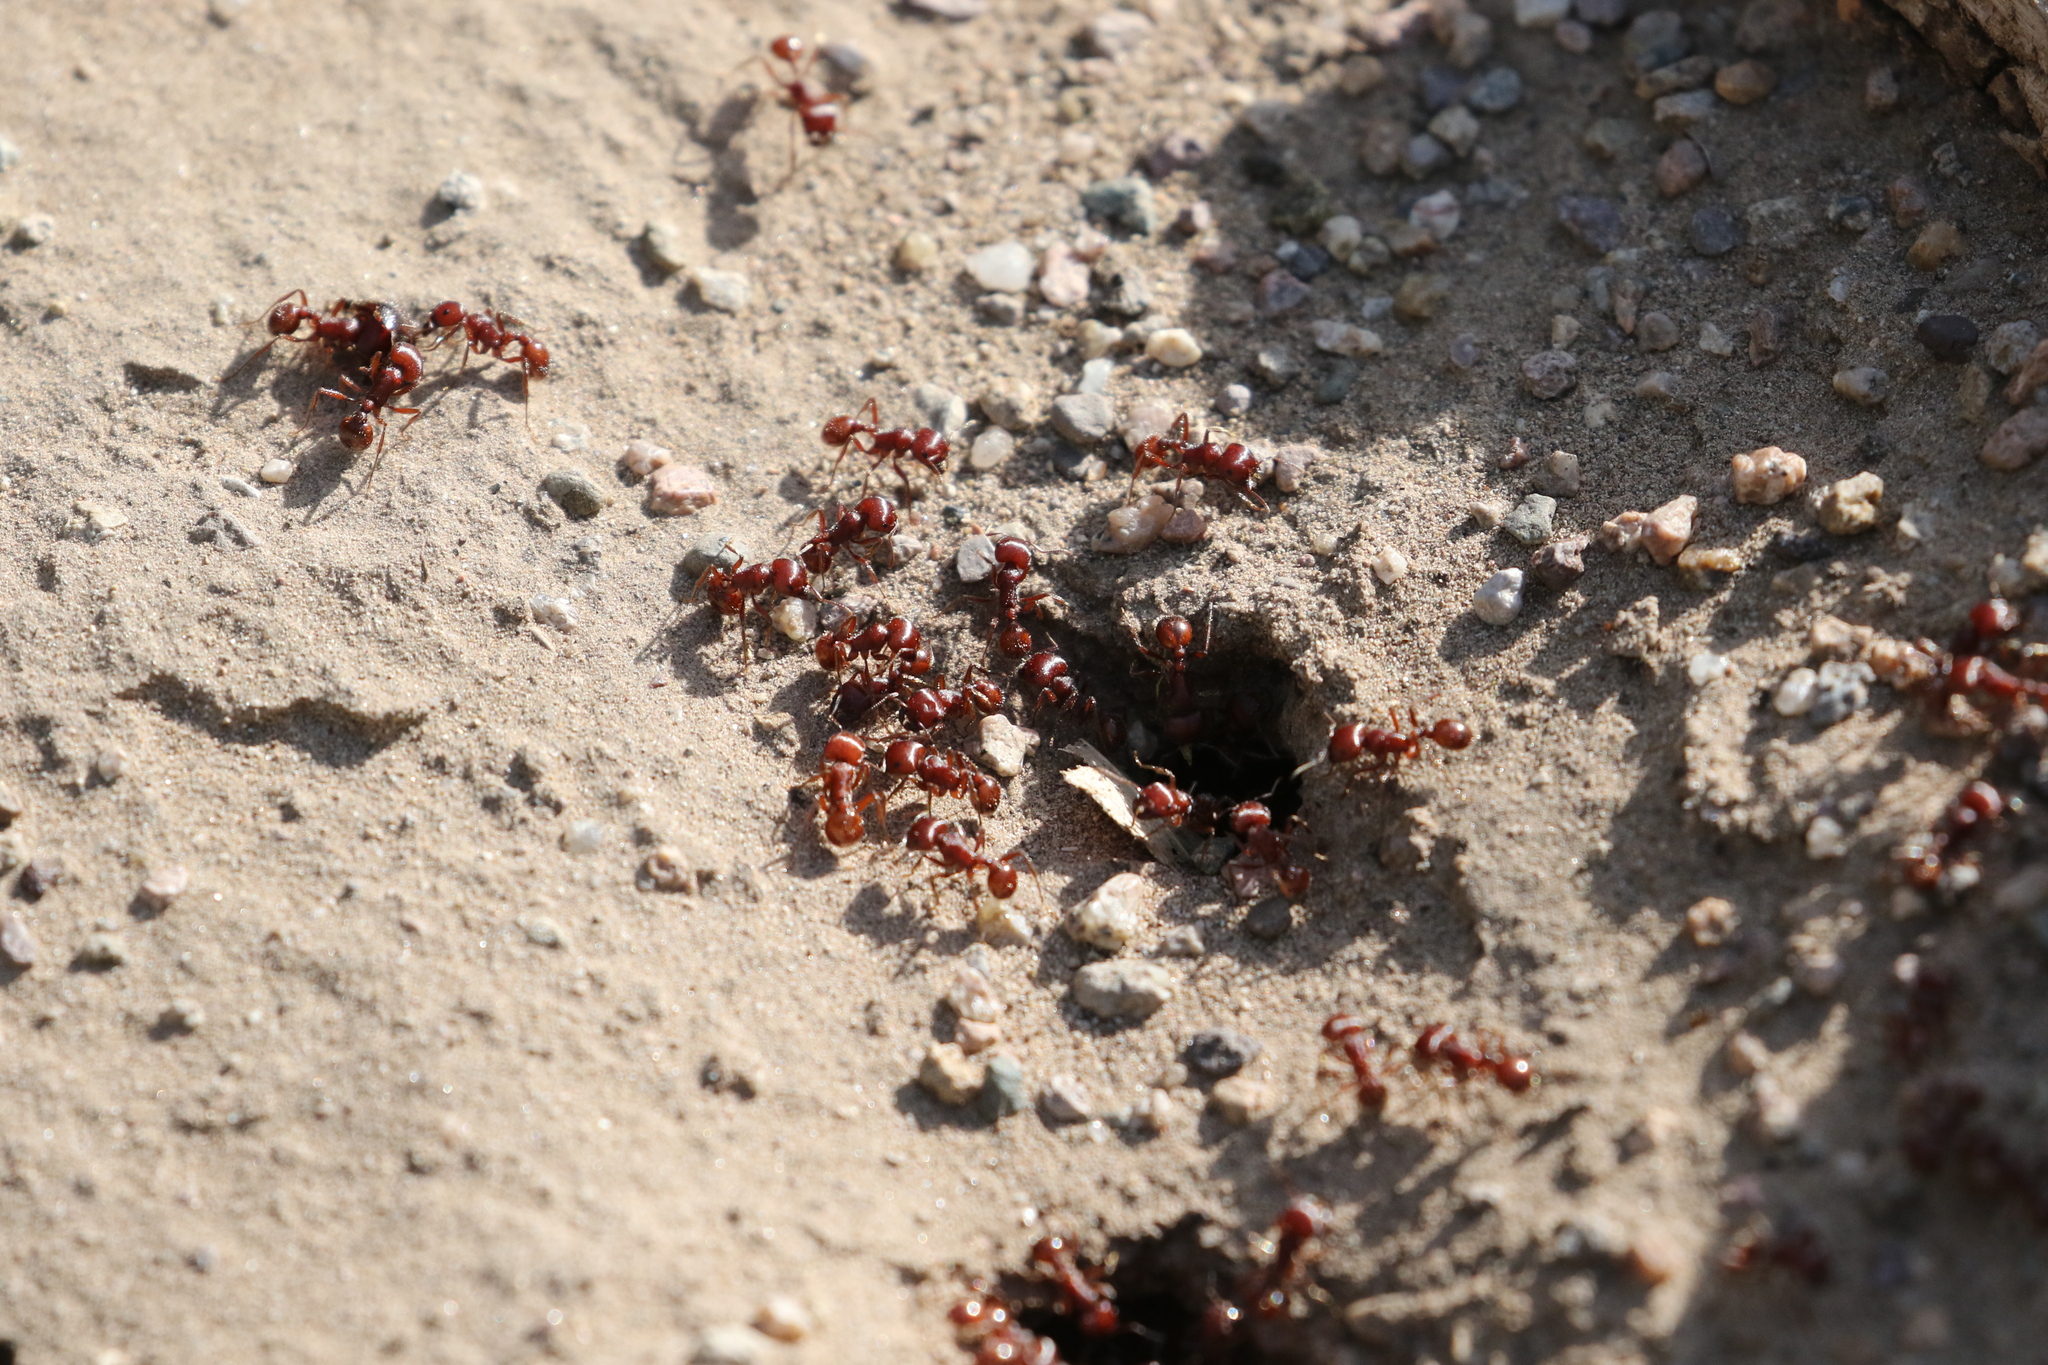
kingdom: Animalia
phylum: Arthropoda
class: Insecta
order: Hymenoptera
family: Formicidae
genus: Pogonomyrmex
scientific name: Pogonomyrmex barbatus
